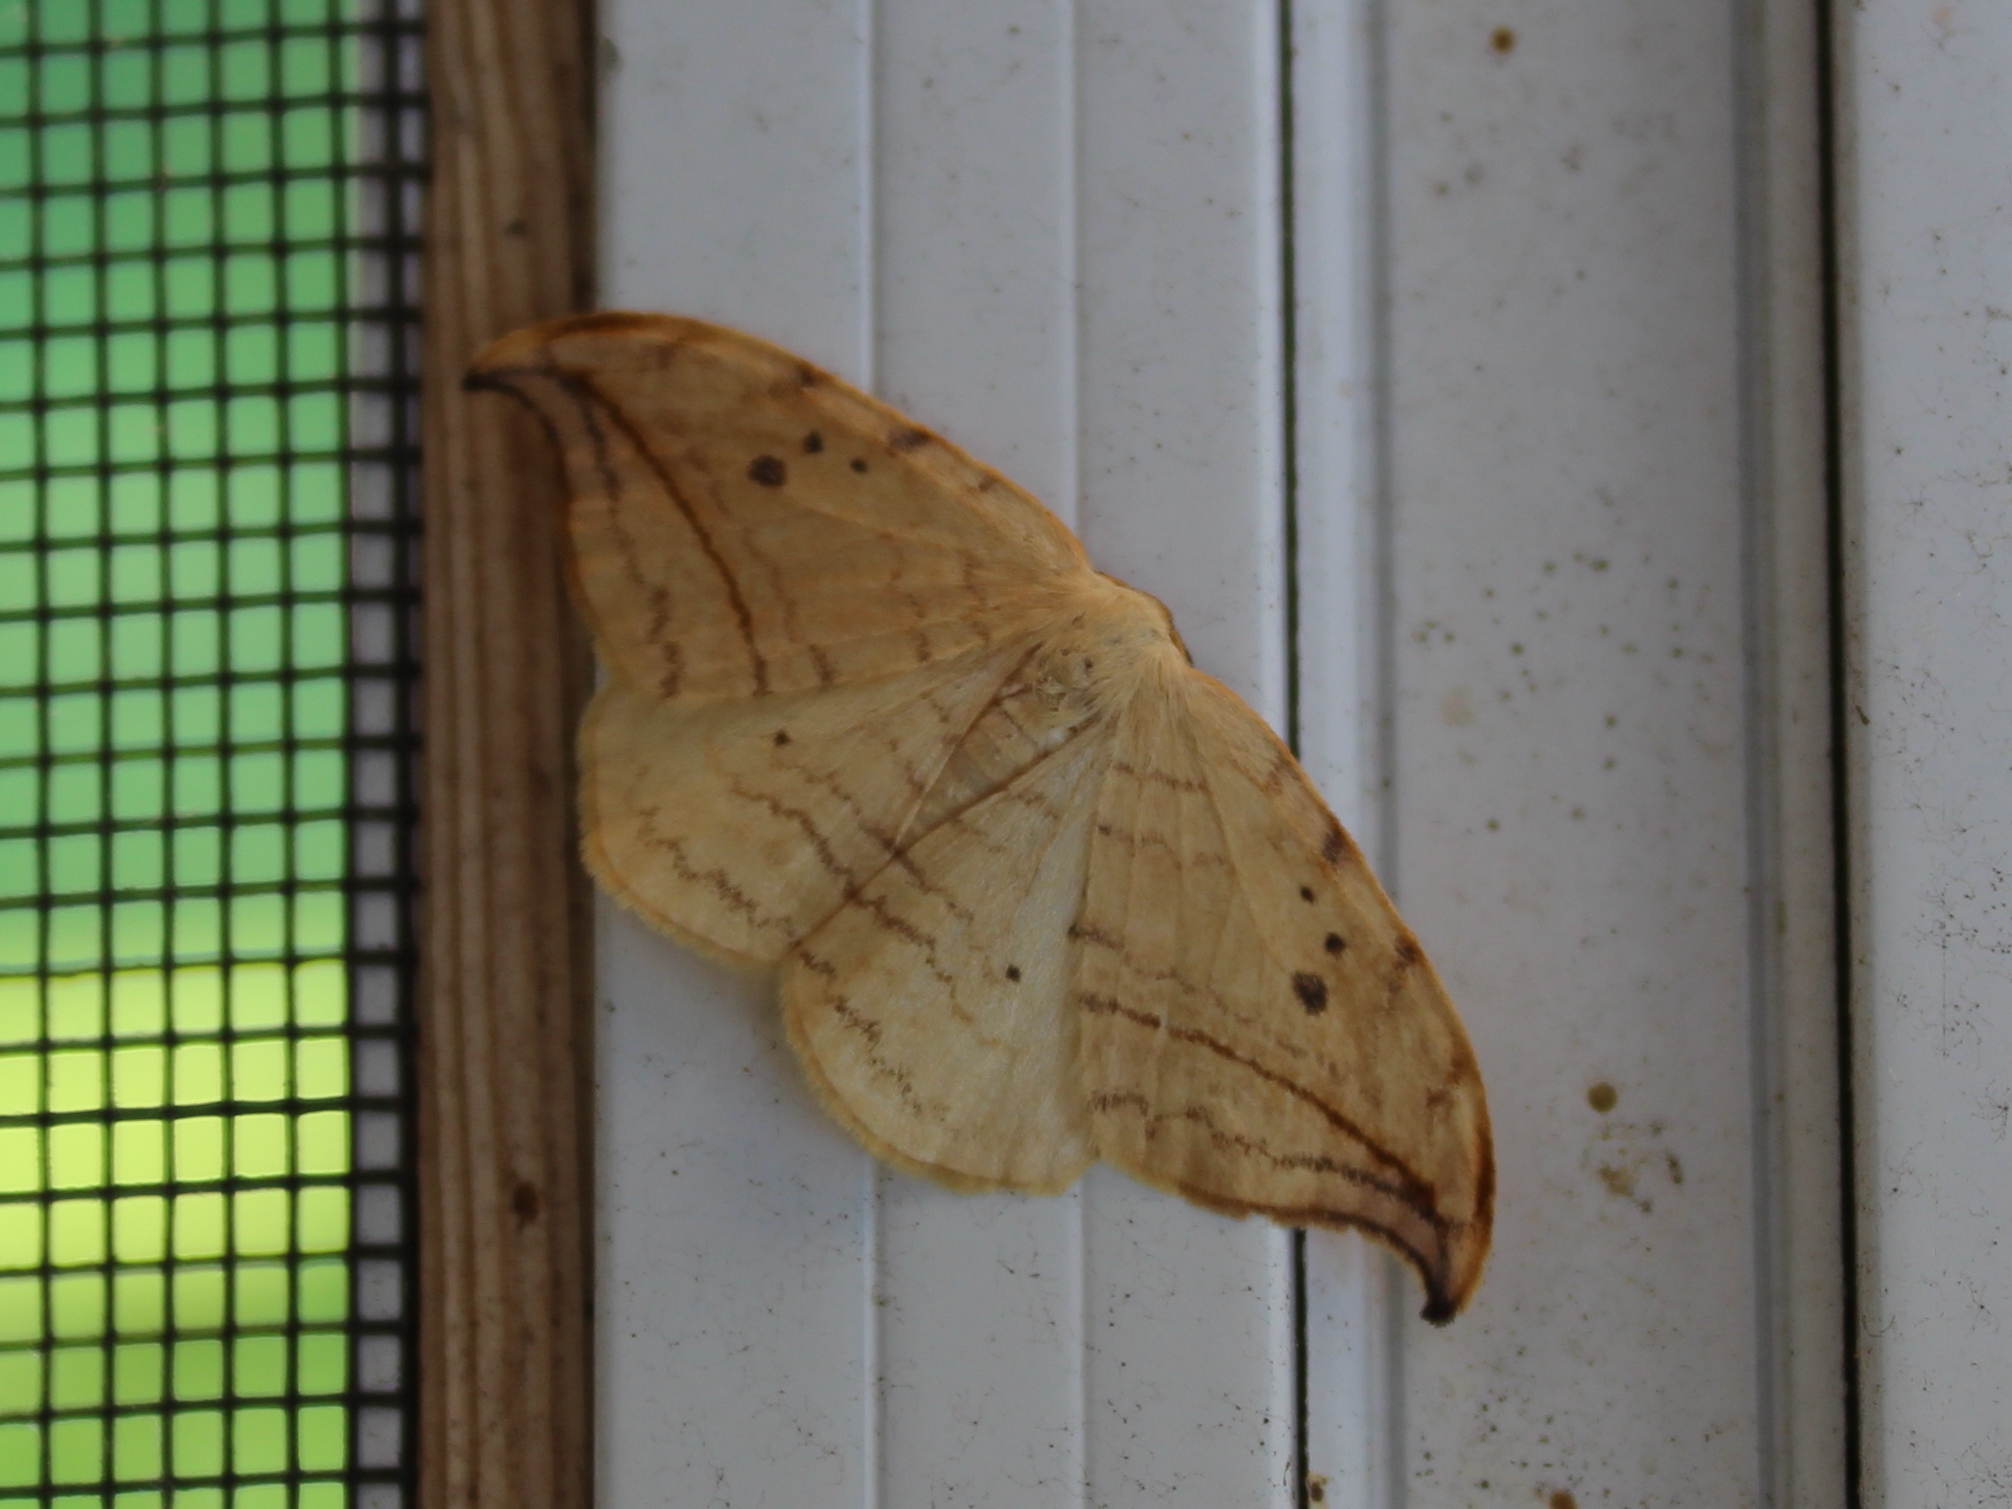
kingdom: Animalia
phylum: Arthropoda
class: Insecta
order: Lepidoptera
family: Drepanidae
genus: Drepana
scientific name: Drepana arcuata
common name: Arched hooktip moth
